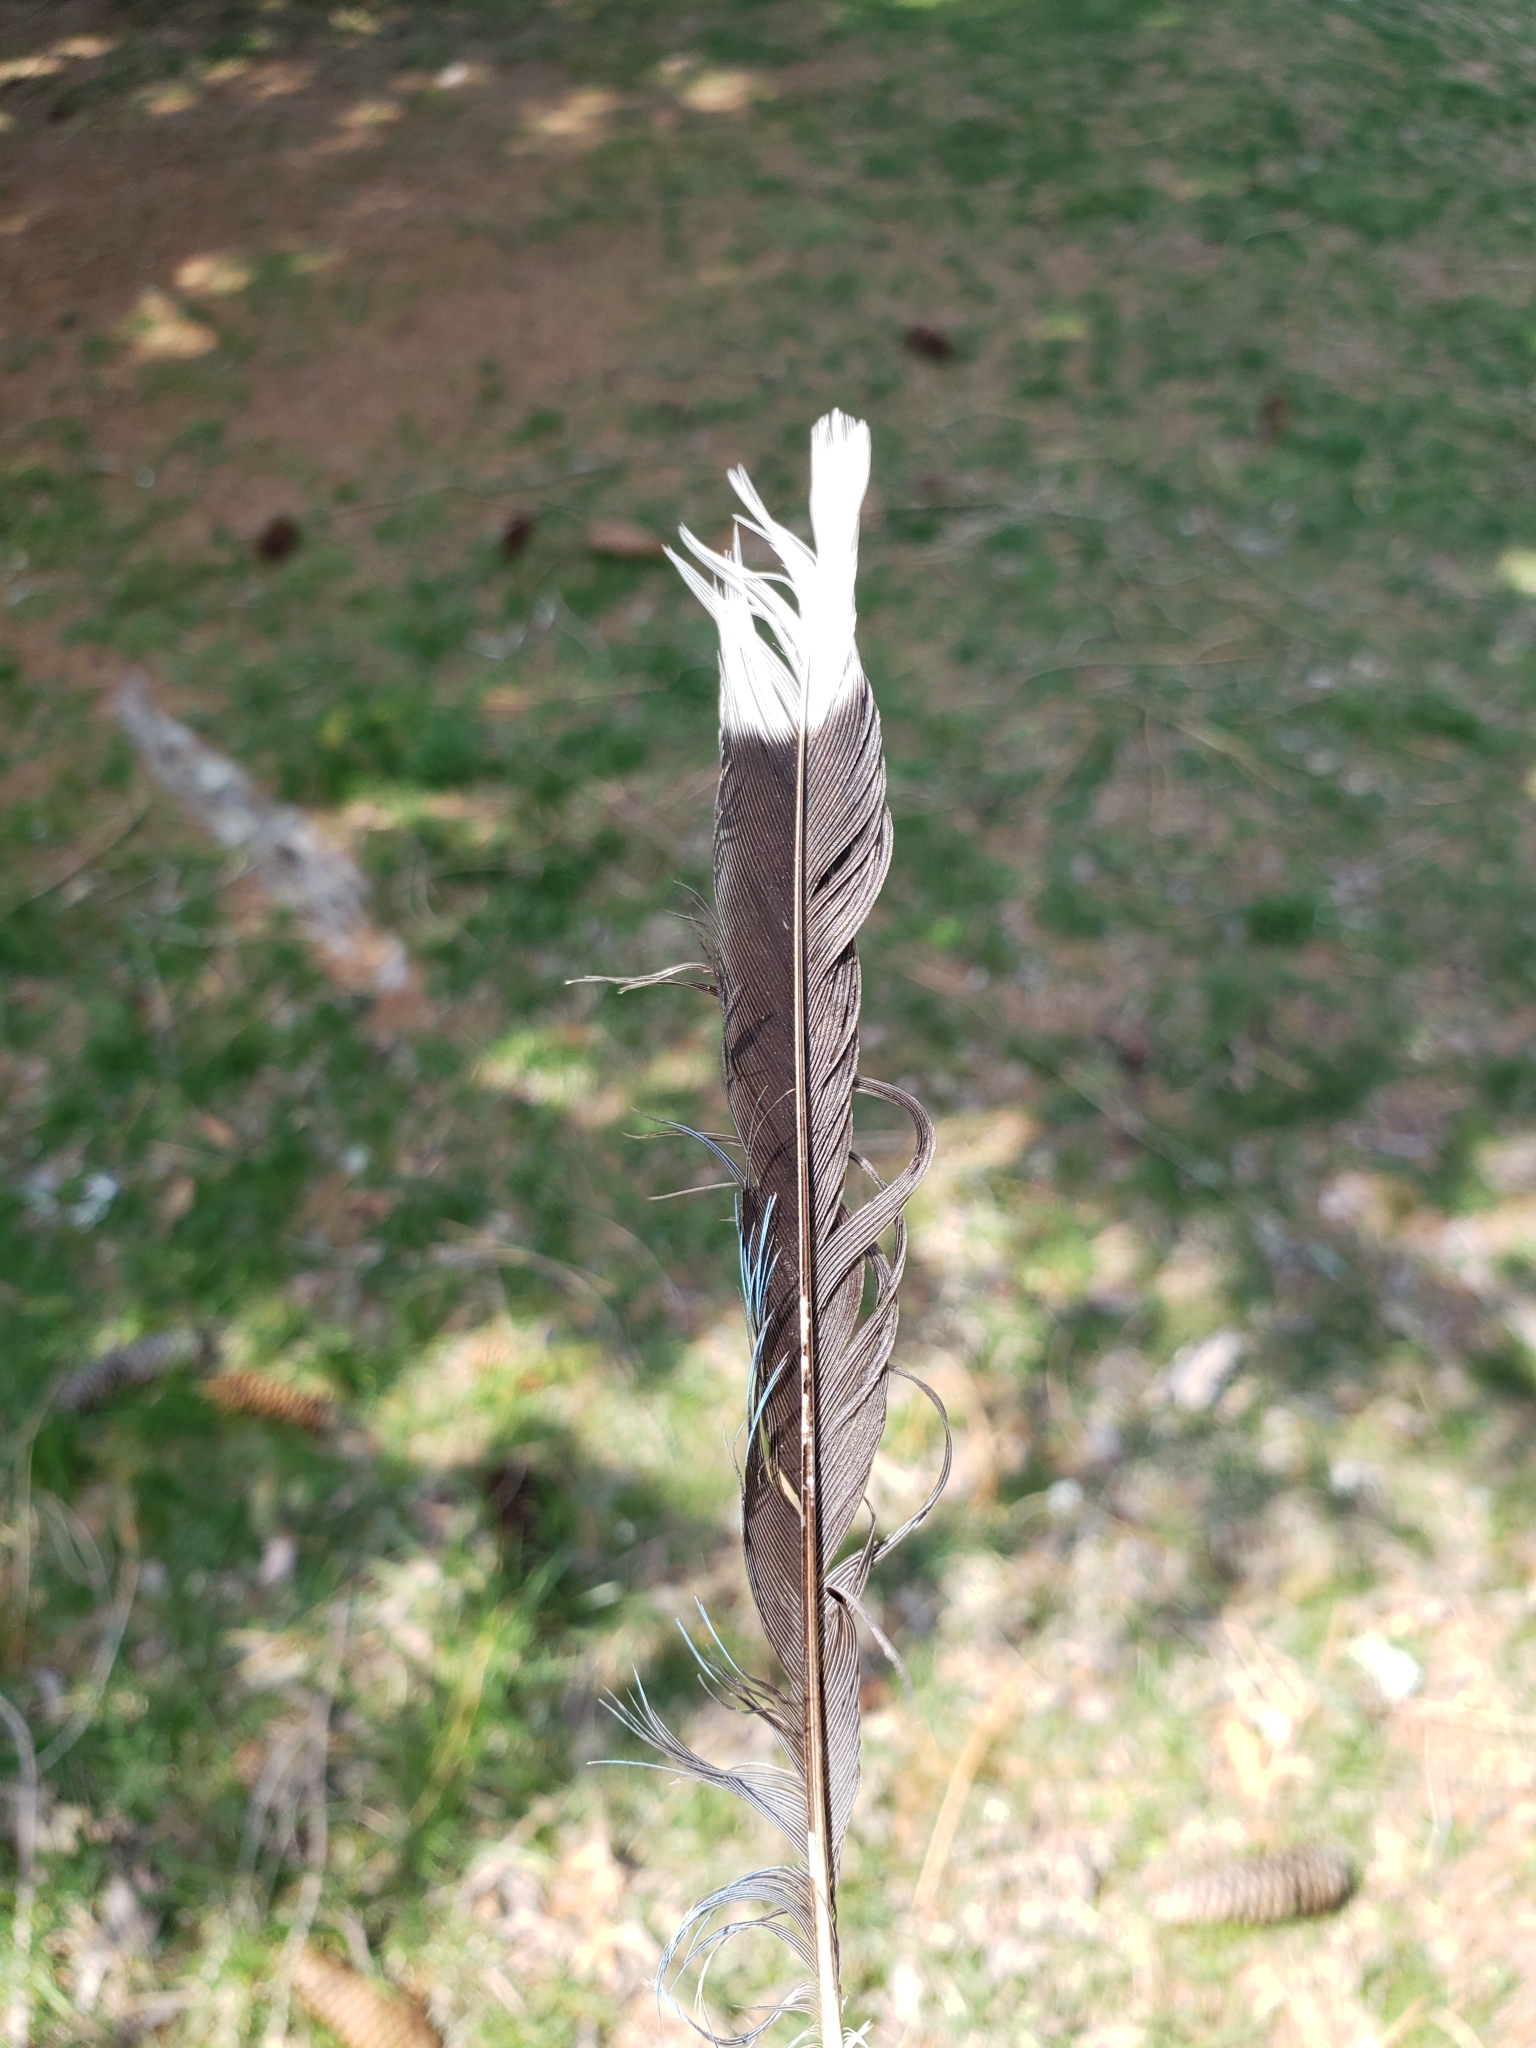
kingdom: Animalia
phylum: Chordata
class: Aves
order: Passeriformes
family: Corvidae
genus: Cyanocitta
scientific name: Cyanocitta cristata
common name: Blue jay
